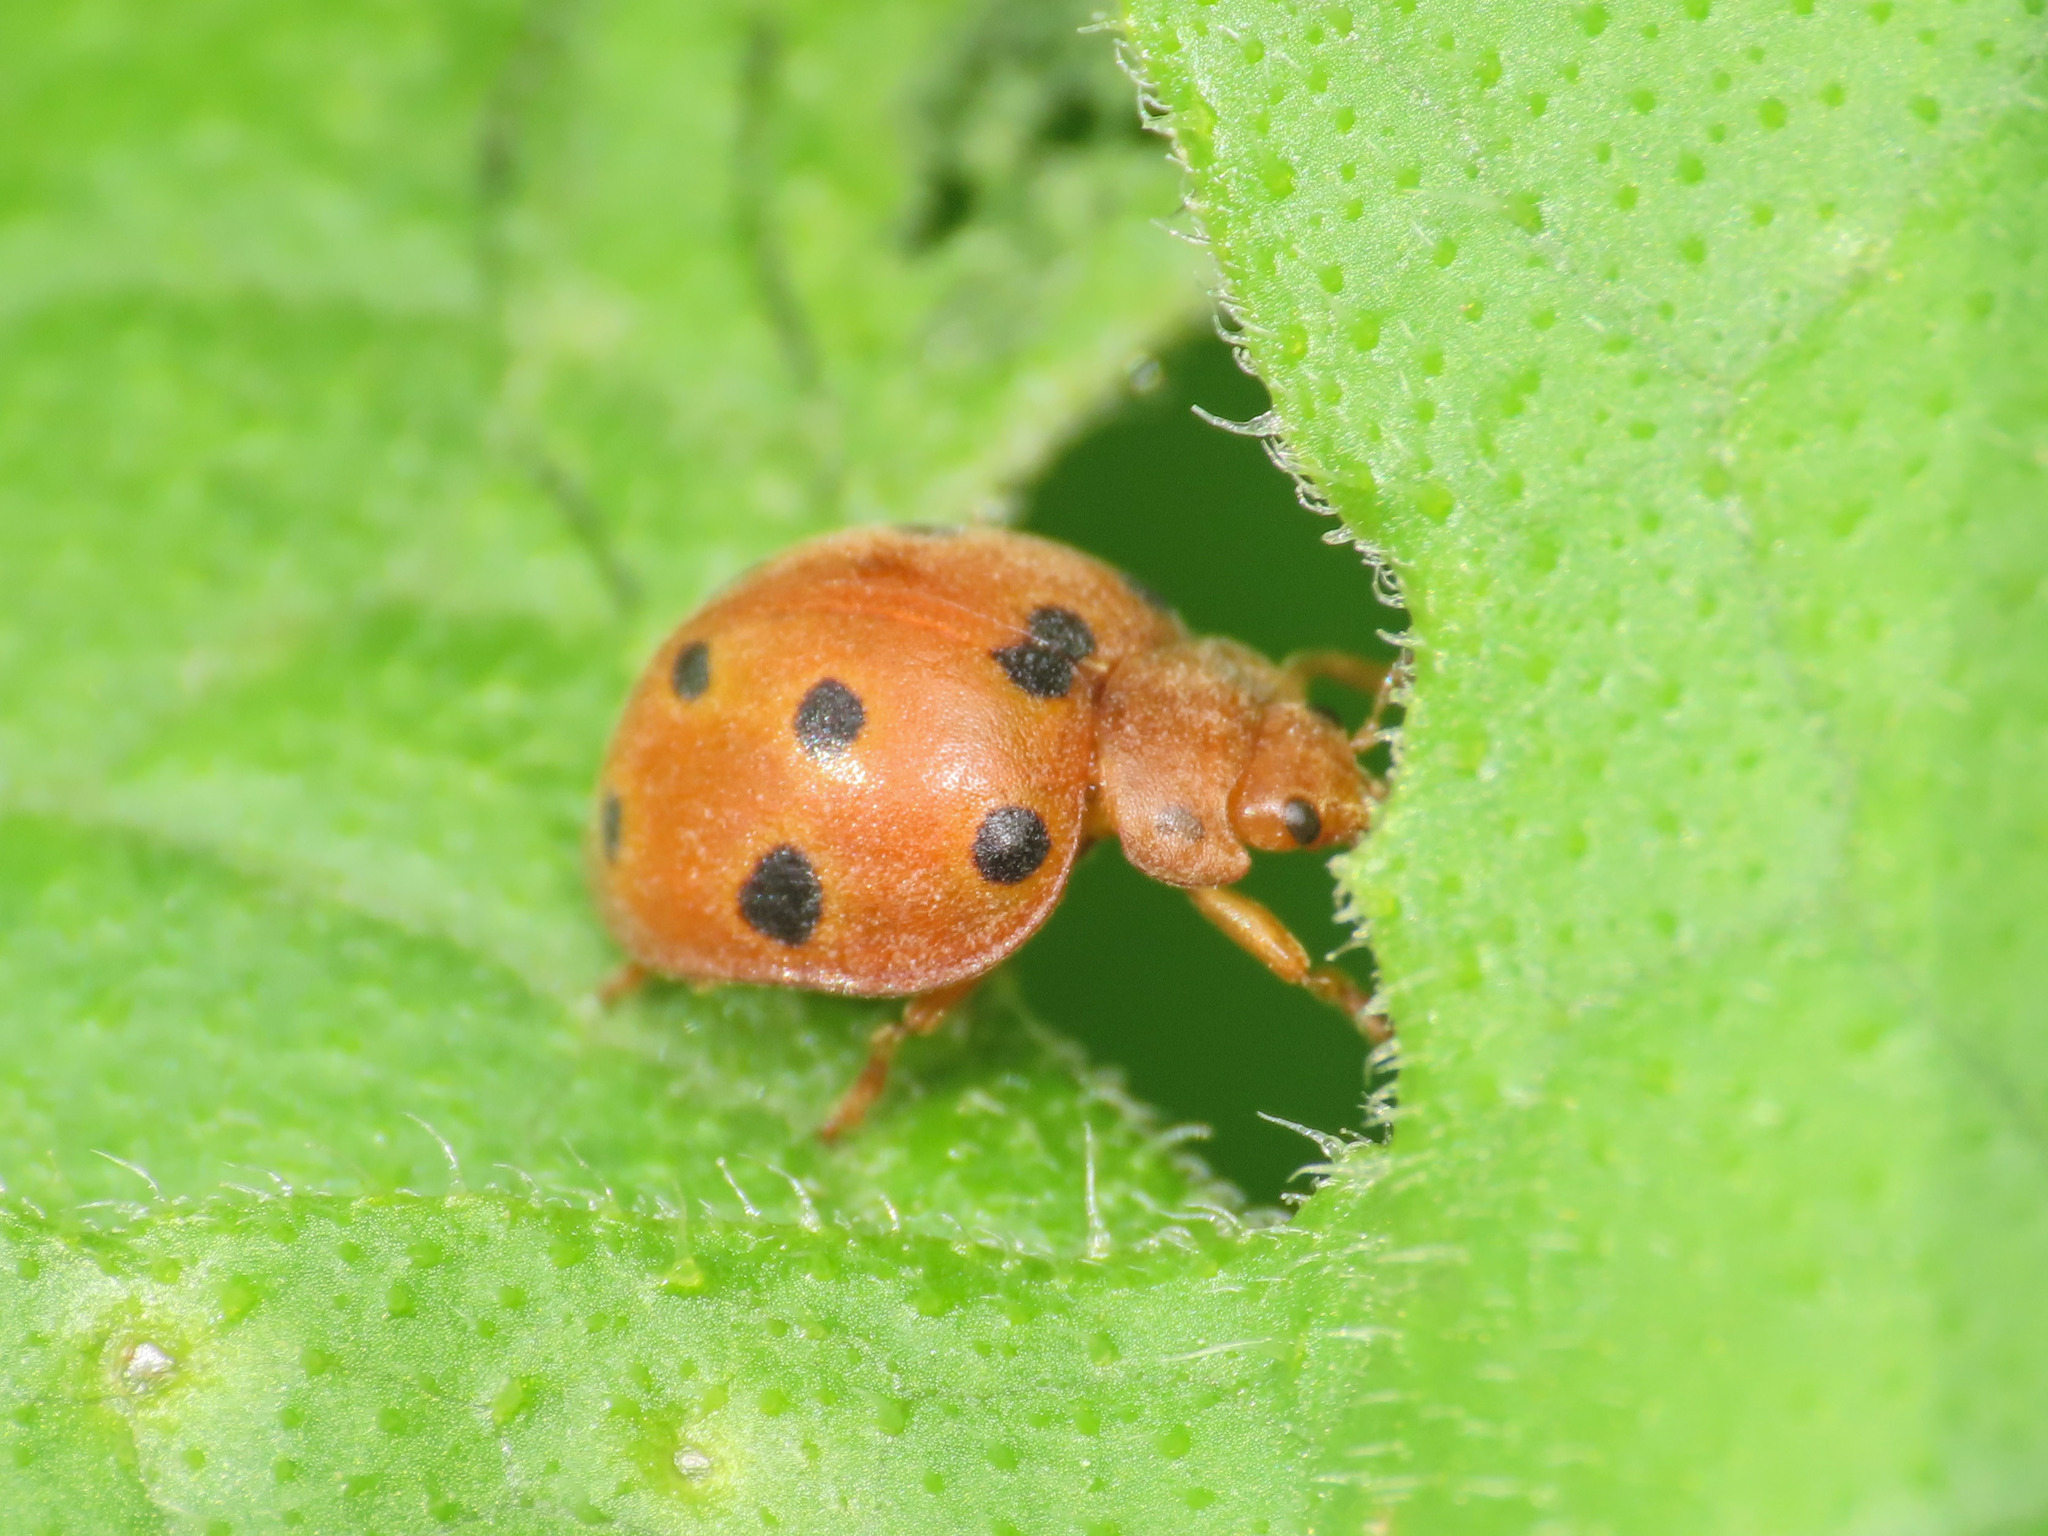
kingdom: Animalia
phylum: Arthropoda
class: Insecta
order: Coleoptera
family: Coccinellidae
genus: Henosepilachna
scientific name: Henosepilachna argus
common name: Bryony ladybird
